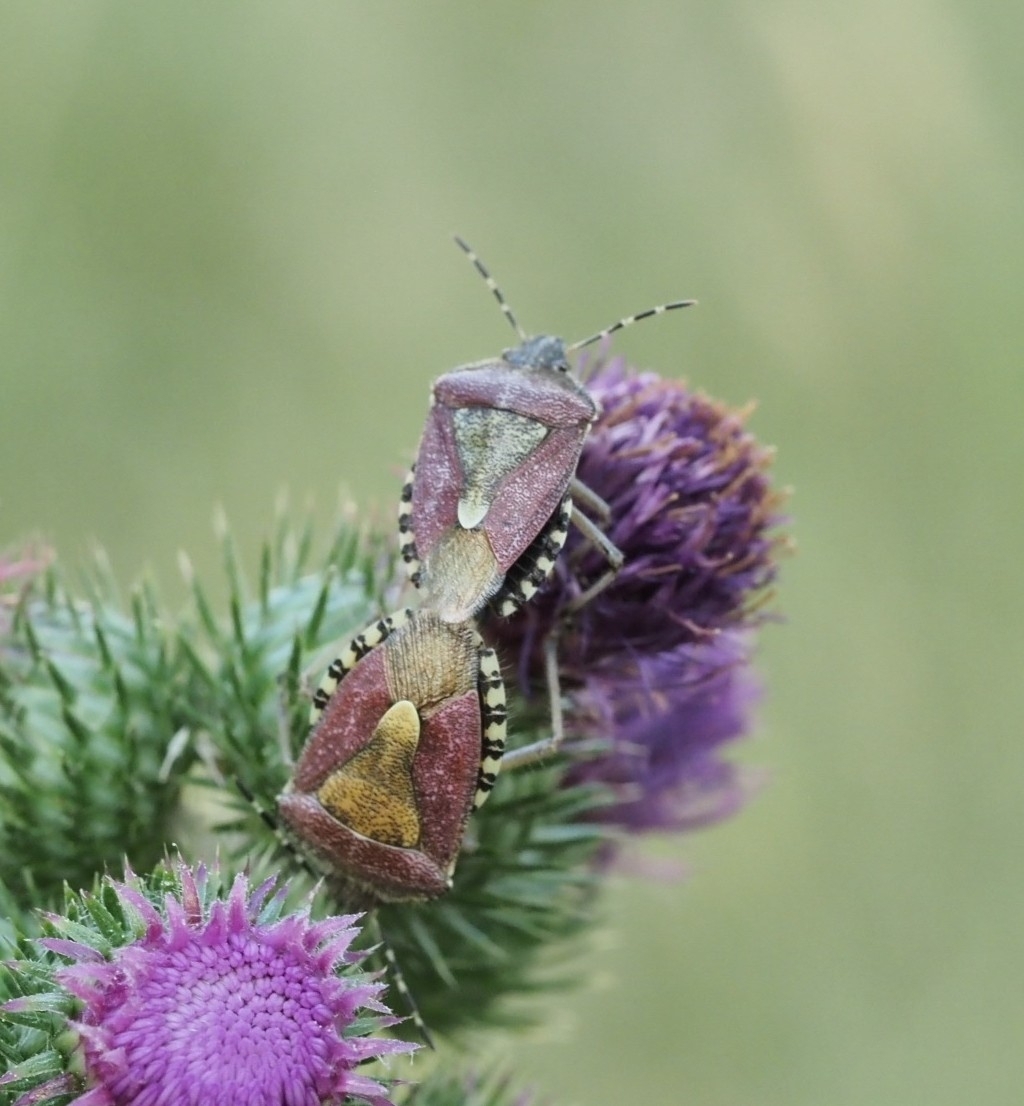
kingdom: Animalia
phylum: Arthropoda
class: Insecta
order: Hemiptera
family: Pentatomidae
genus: Dolycoris
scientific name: Dolycoris baccarum
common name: Sloe bug
